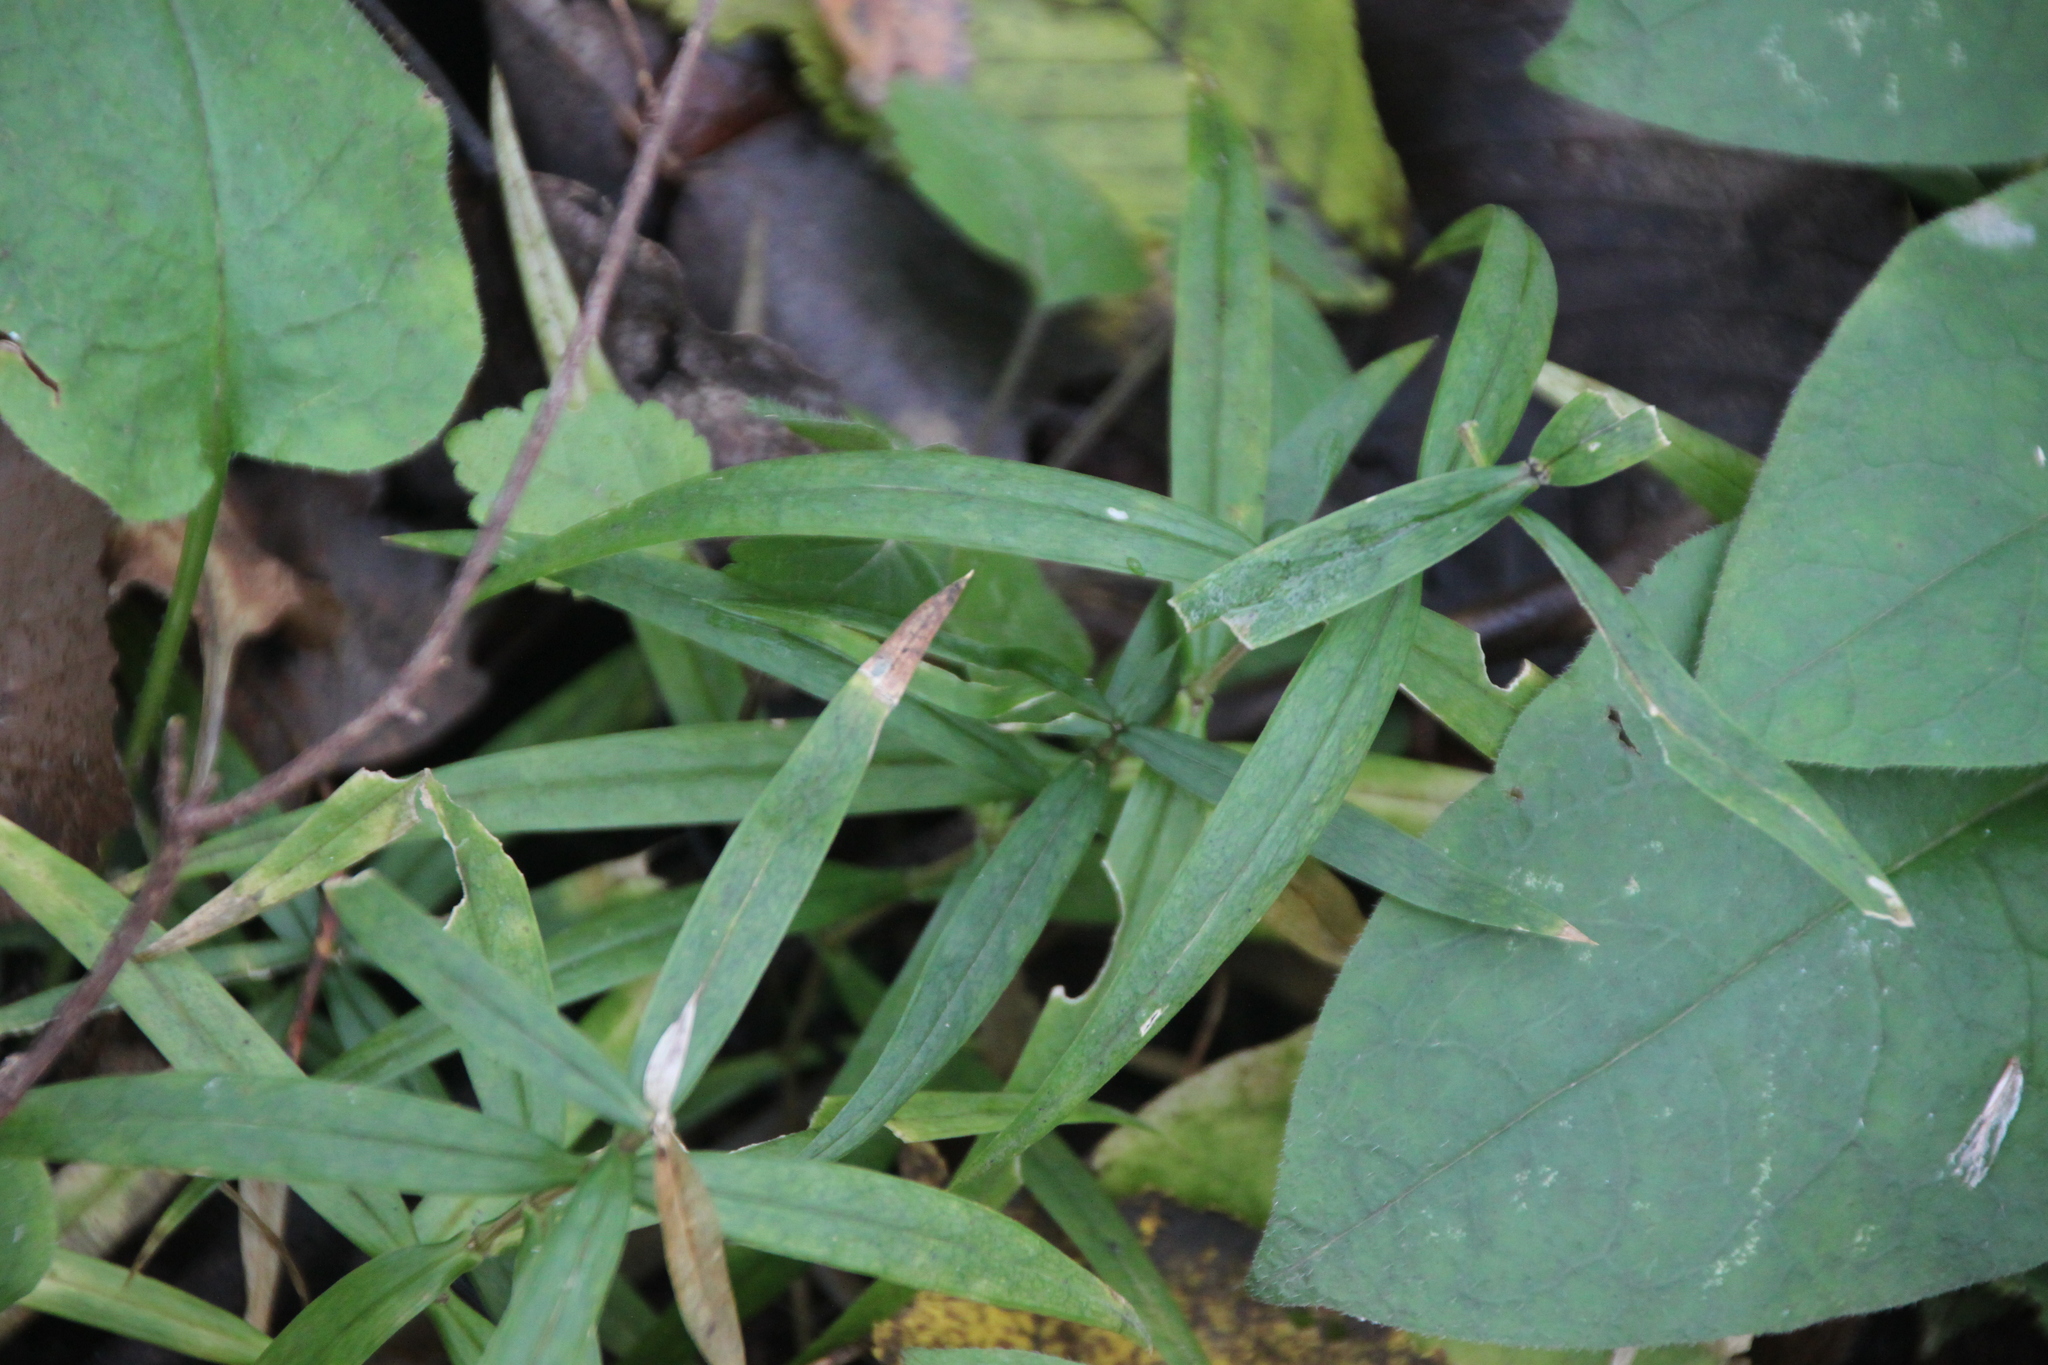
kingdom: Plantae
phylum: Tracheophyta
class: Magnoliopsida
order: Caryophyllales
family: Caryophyllaceae
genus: Rabelera
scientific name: Rabelera holostea
